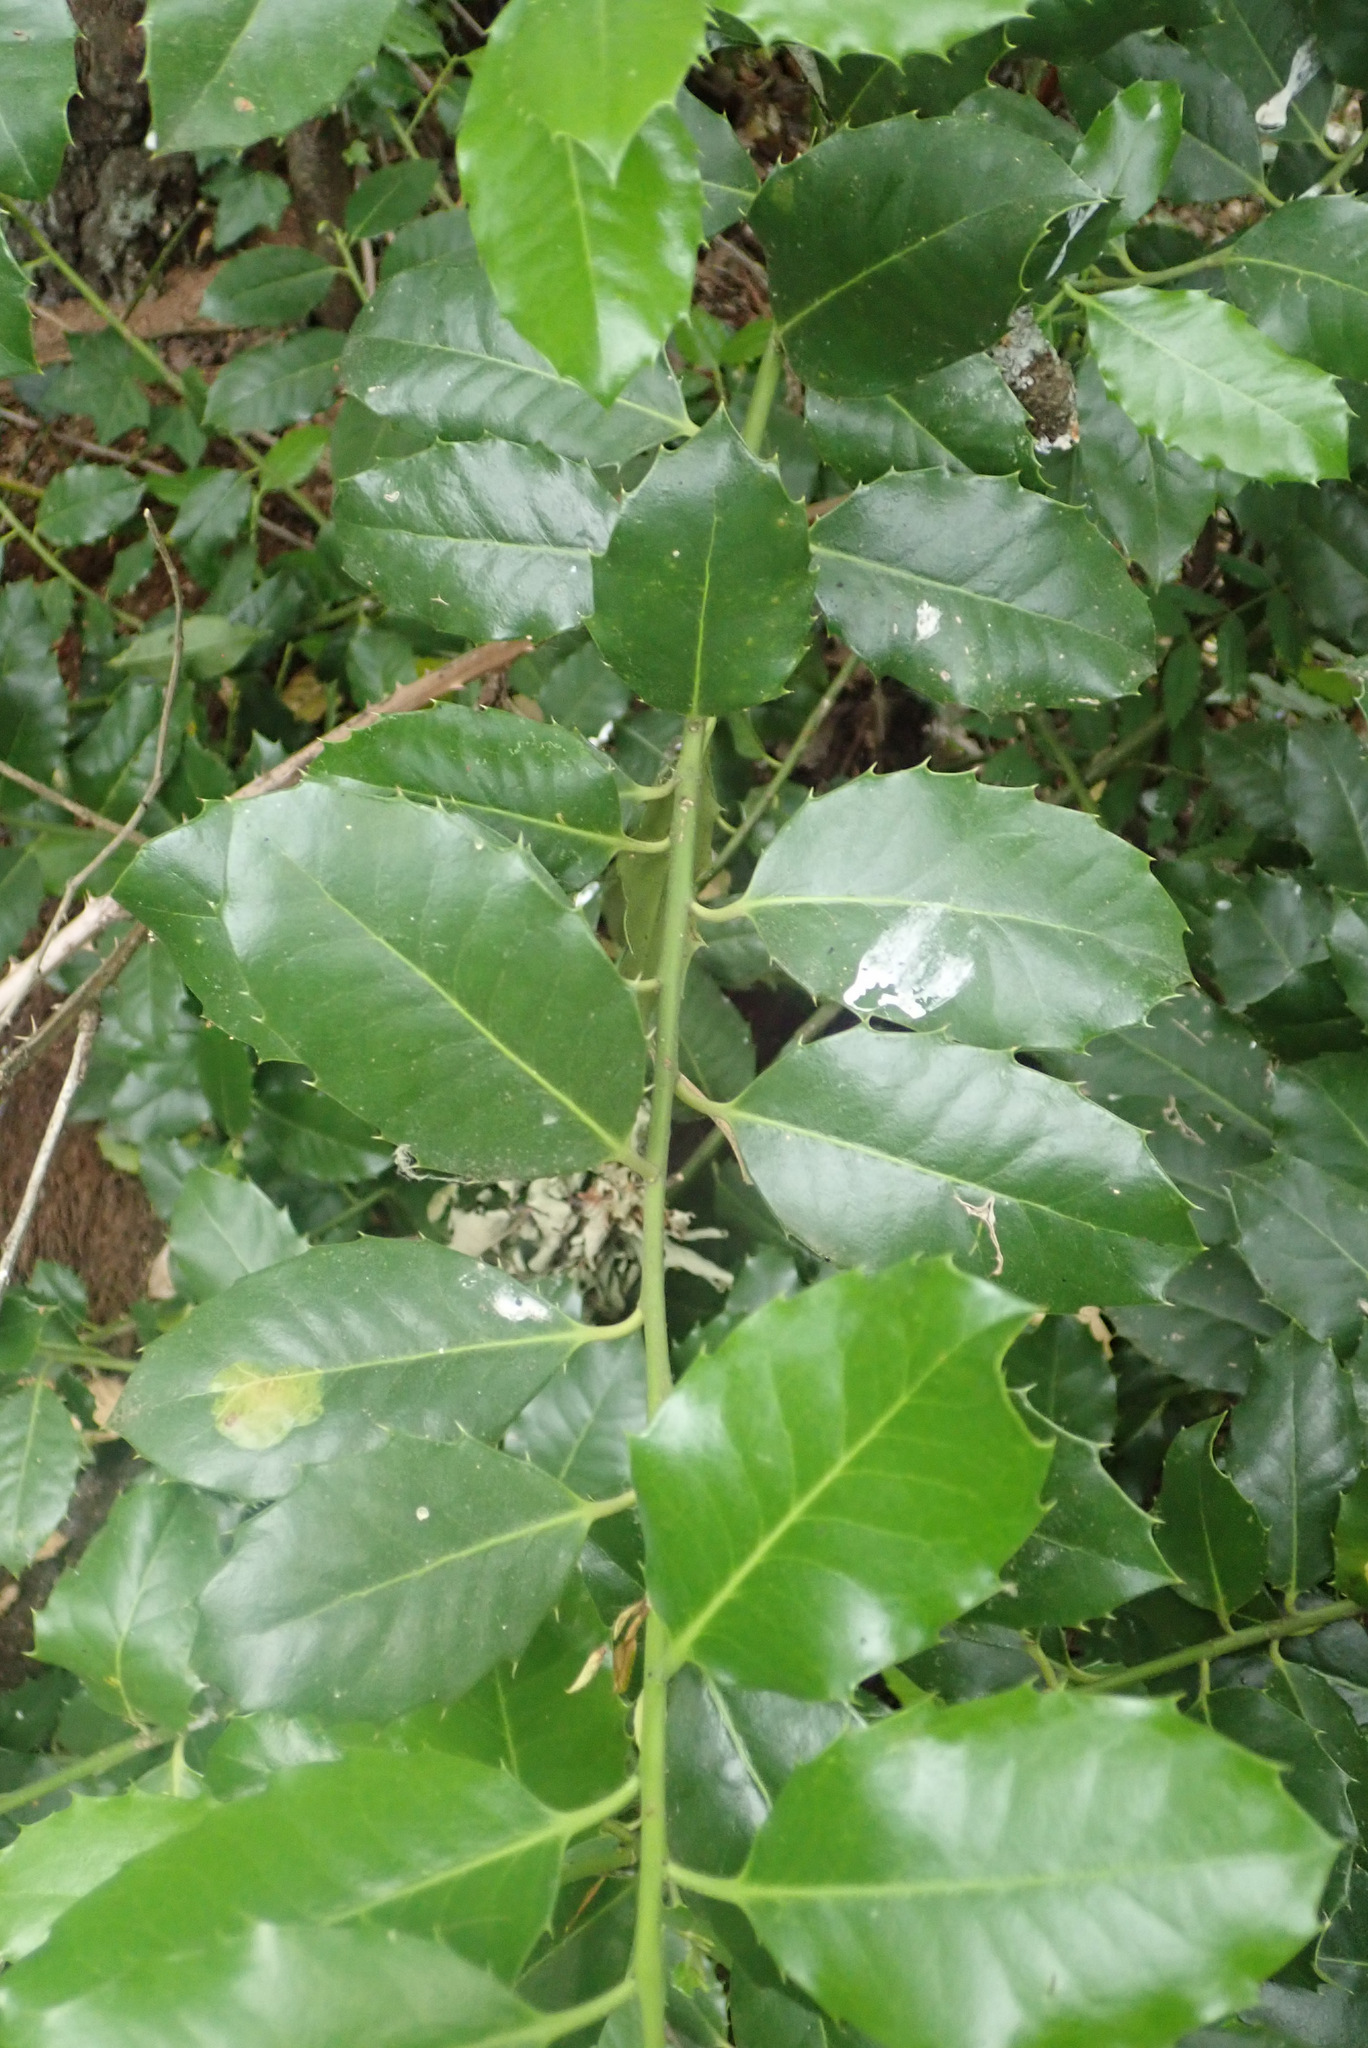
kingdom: Plantae
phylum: Tracheophyta
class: Magnoliopsida
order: Aquifoliales
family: Aquifoliaceae
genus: Ilex
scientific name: Ilex altaclerensis
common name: Highclere holly
